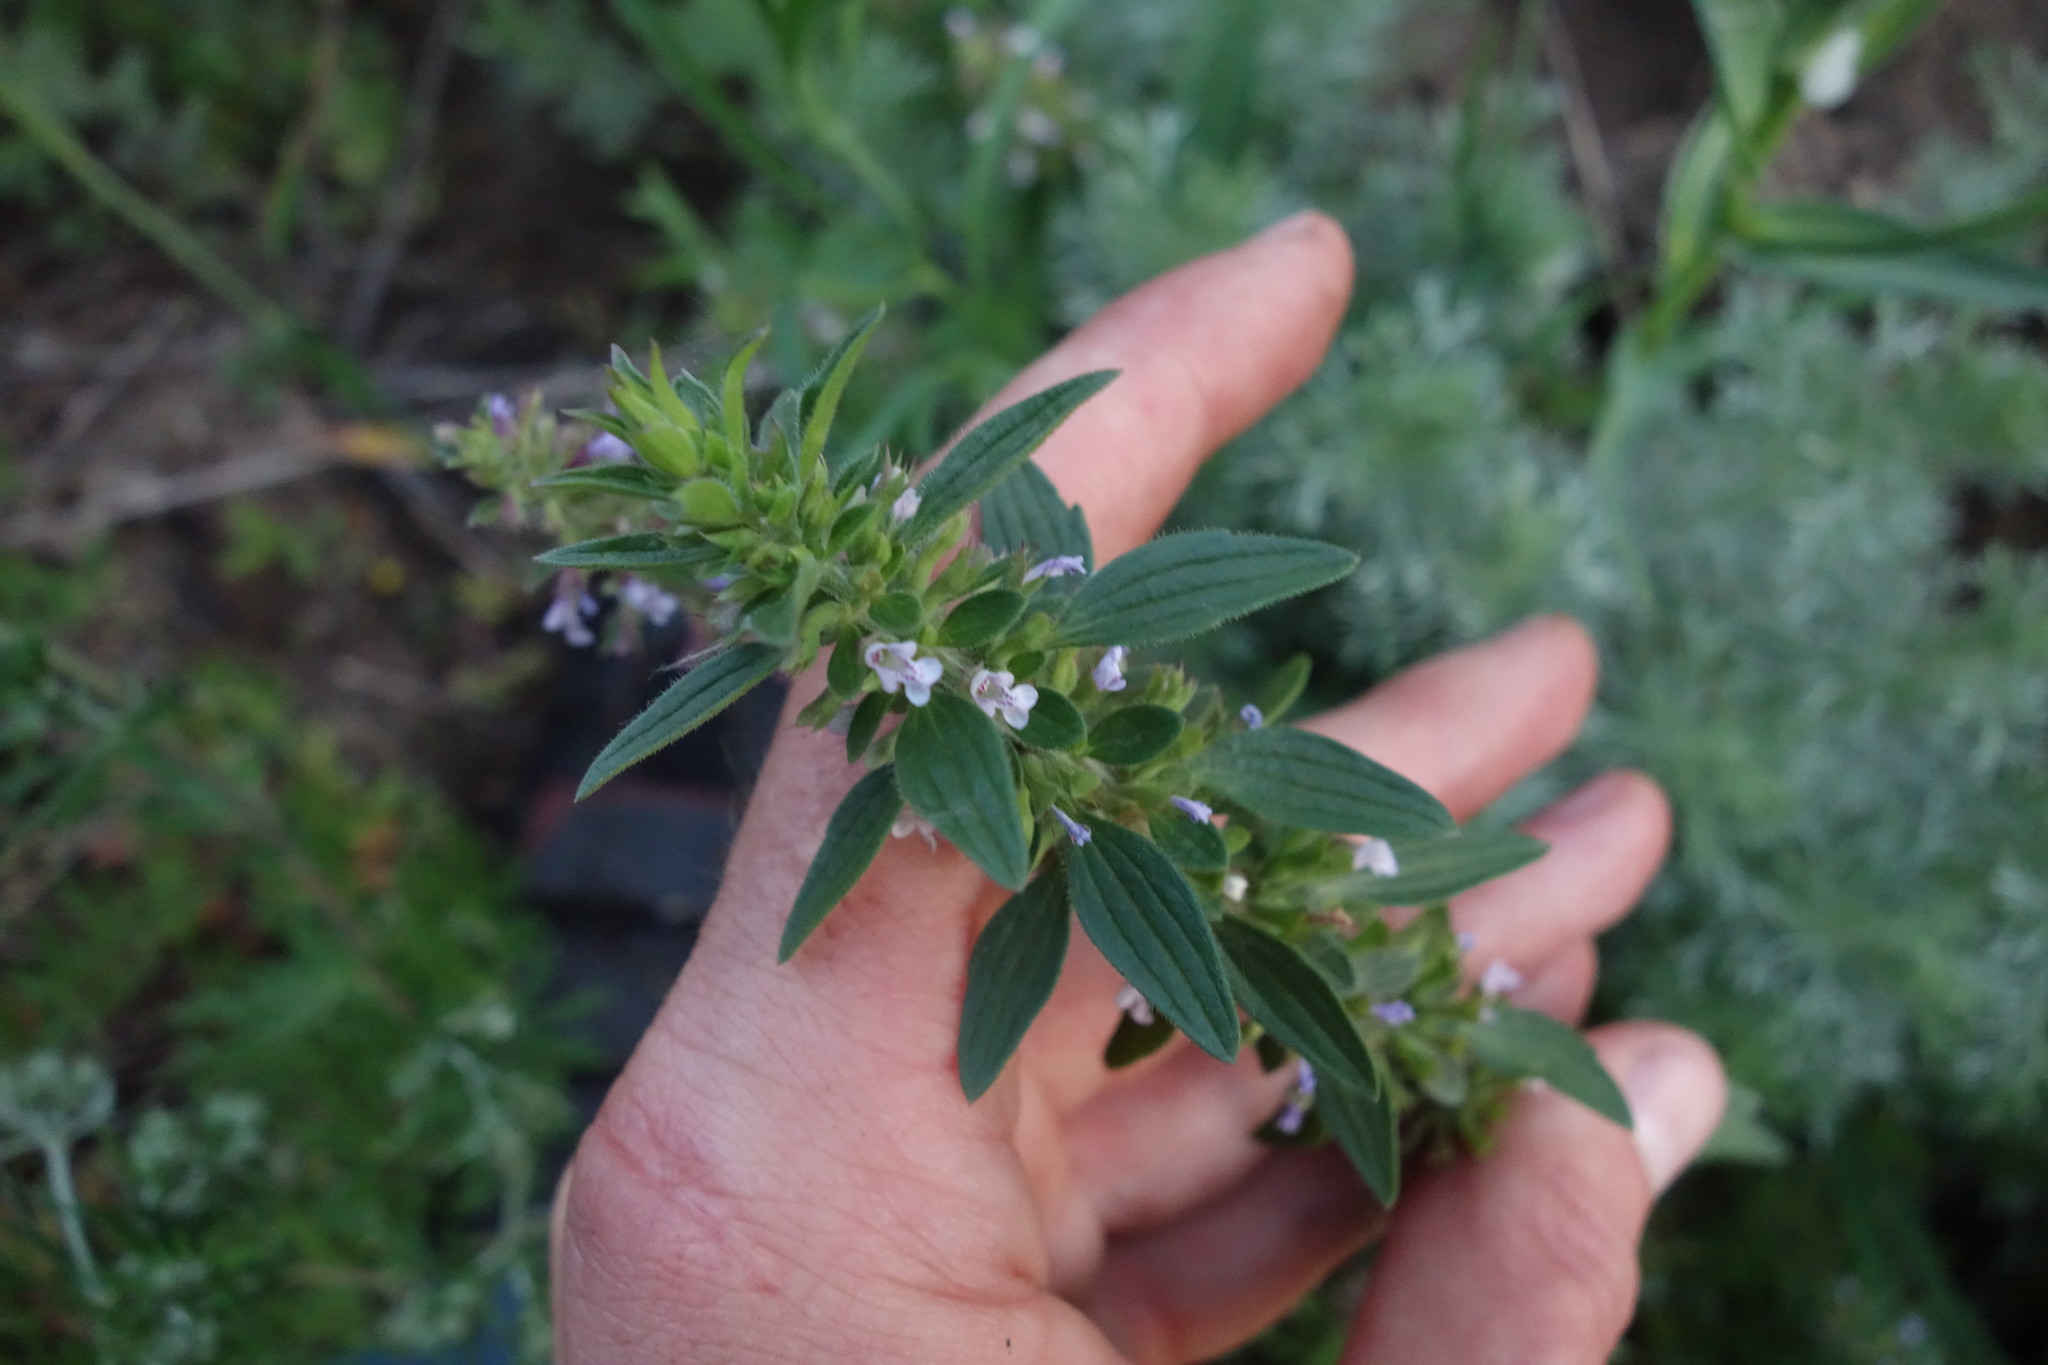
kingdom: Plantae
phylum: Tracheophyta
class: Magnoliopsida
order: Lamiales
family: Lamiaceae
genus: Dracocephalum
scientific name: Dracocephalum thymiflorum
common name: Thymeleaf dragonhead
